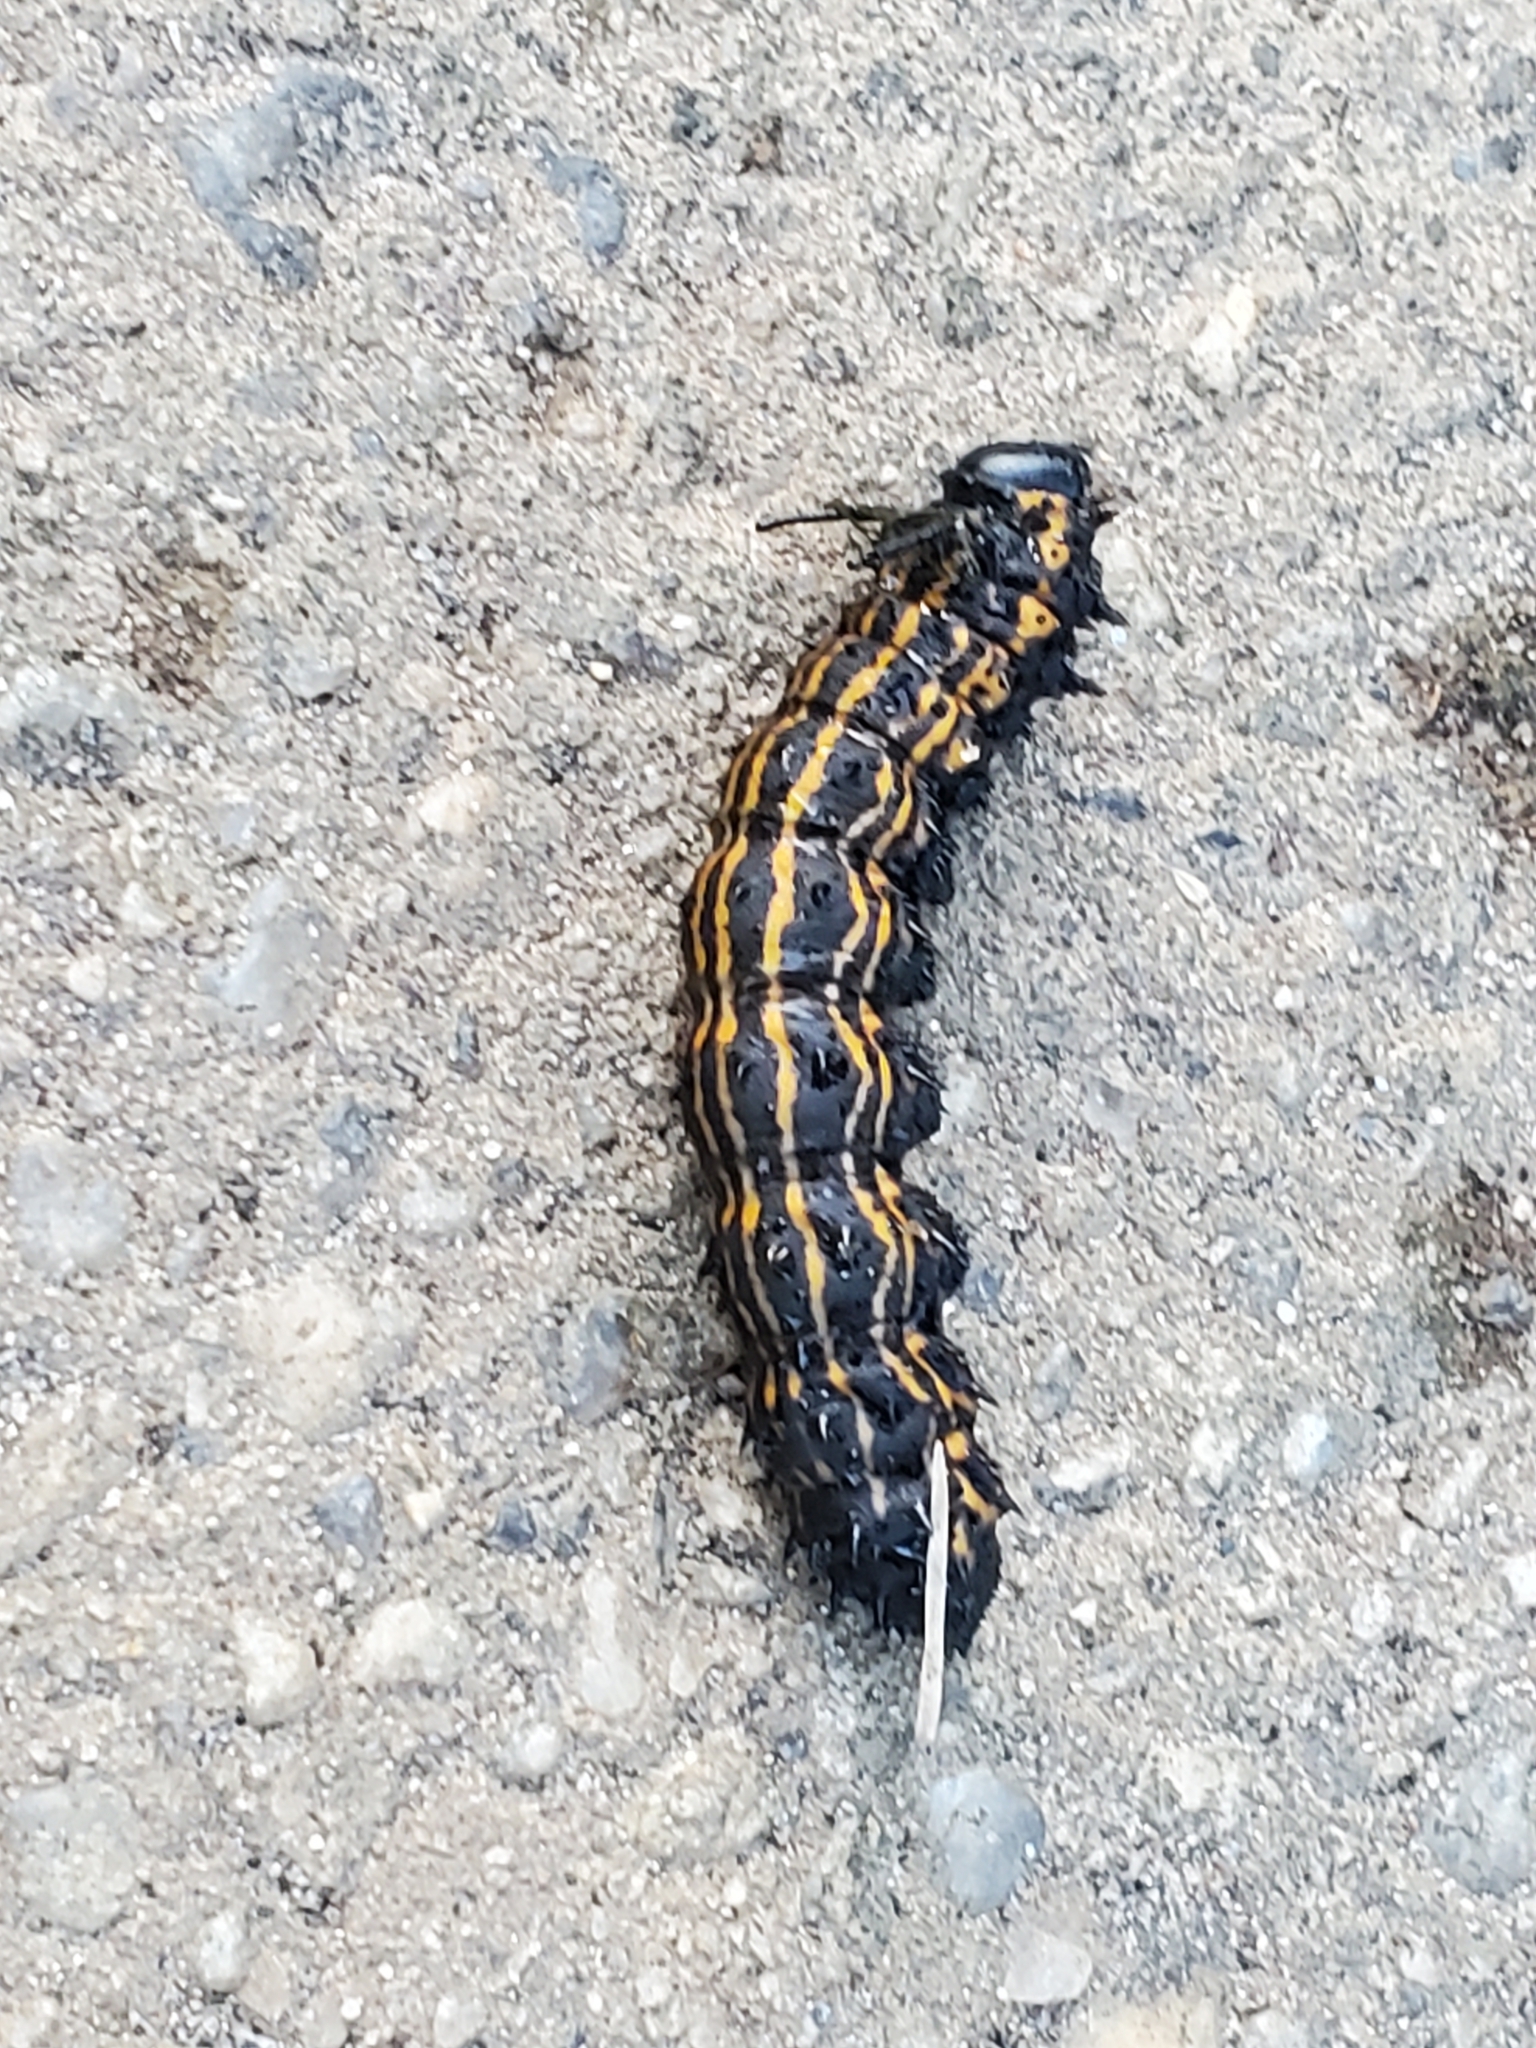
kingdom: Animalia
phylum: Arthropoda
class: Insecta
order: Lepidoptera
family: Saturniidae
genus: Anisota
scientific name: Anisota senatoria
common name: Orange-striped oakworm moth
